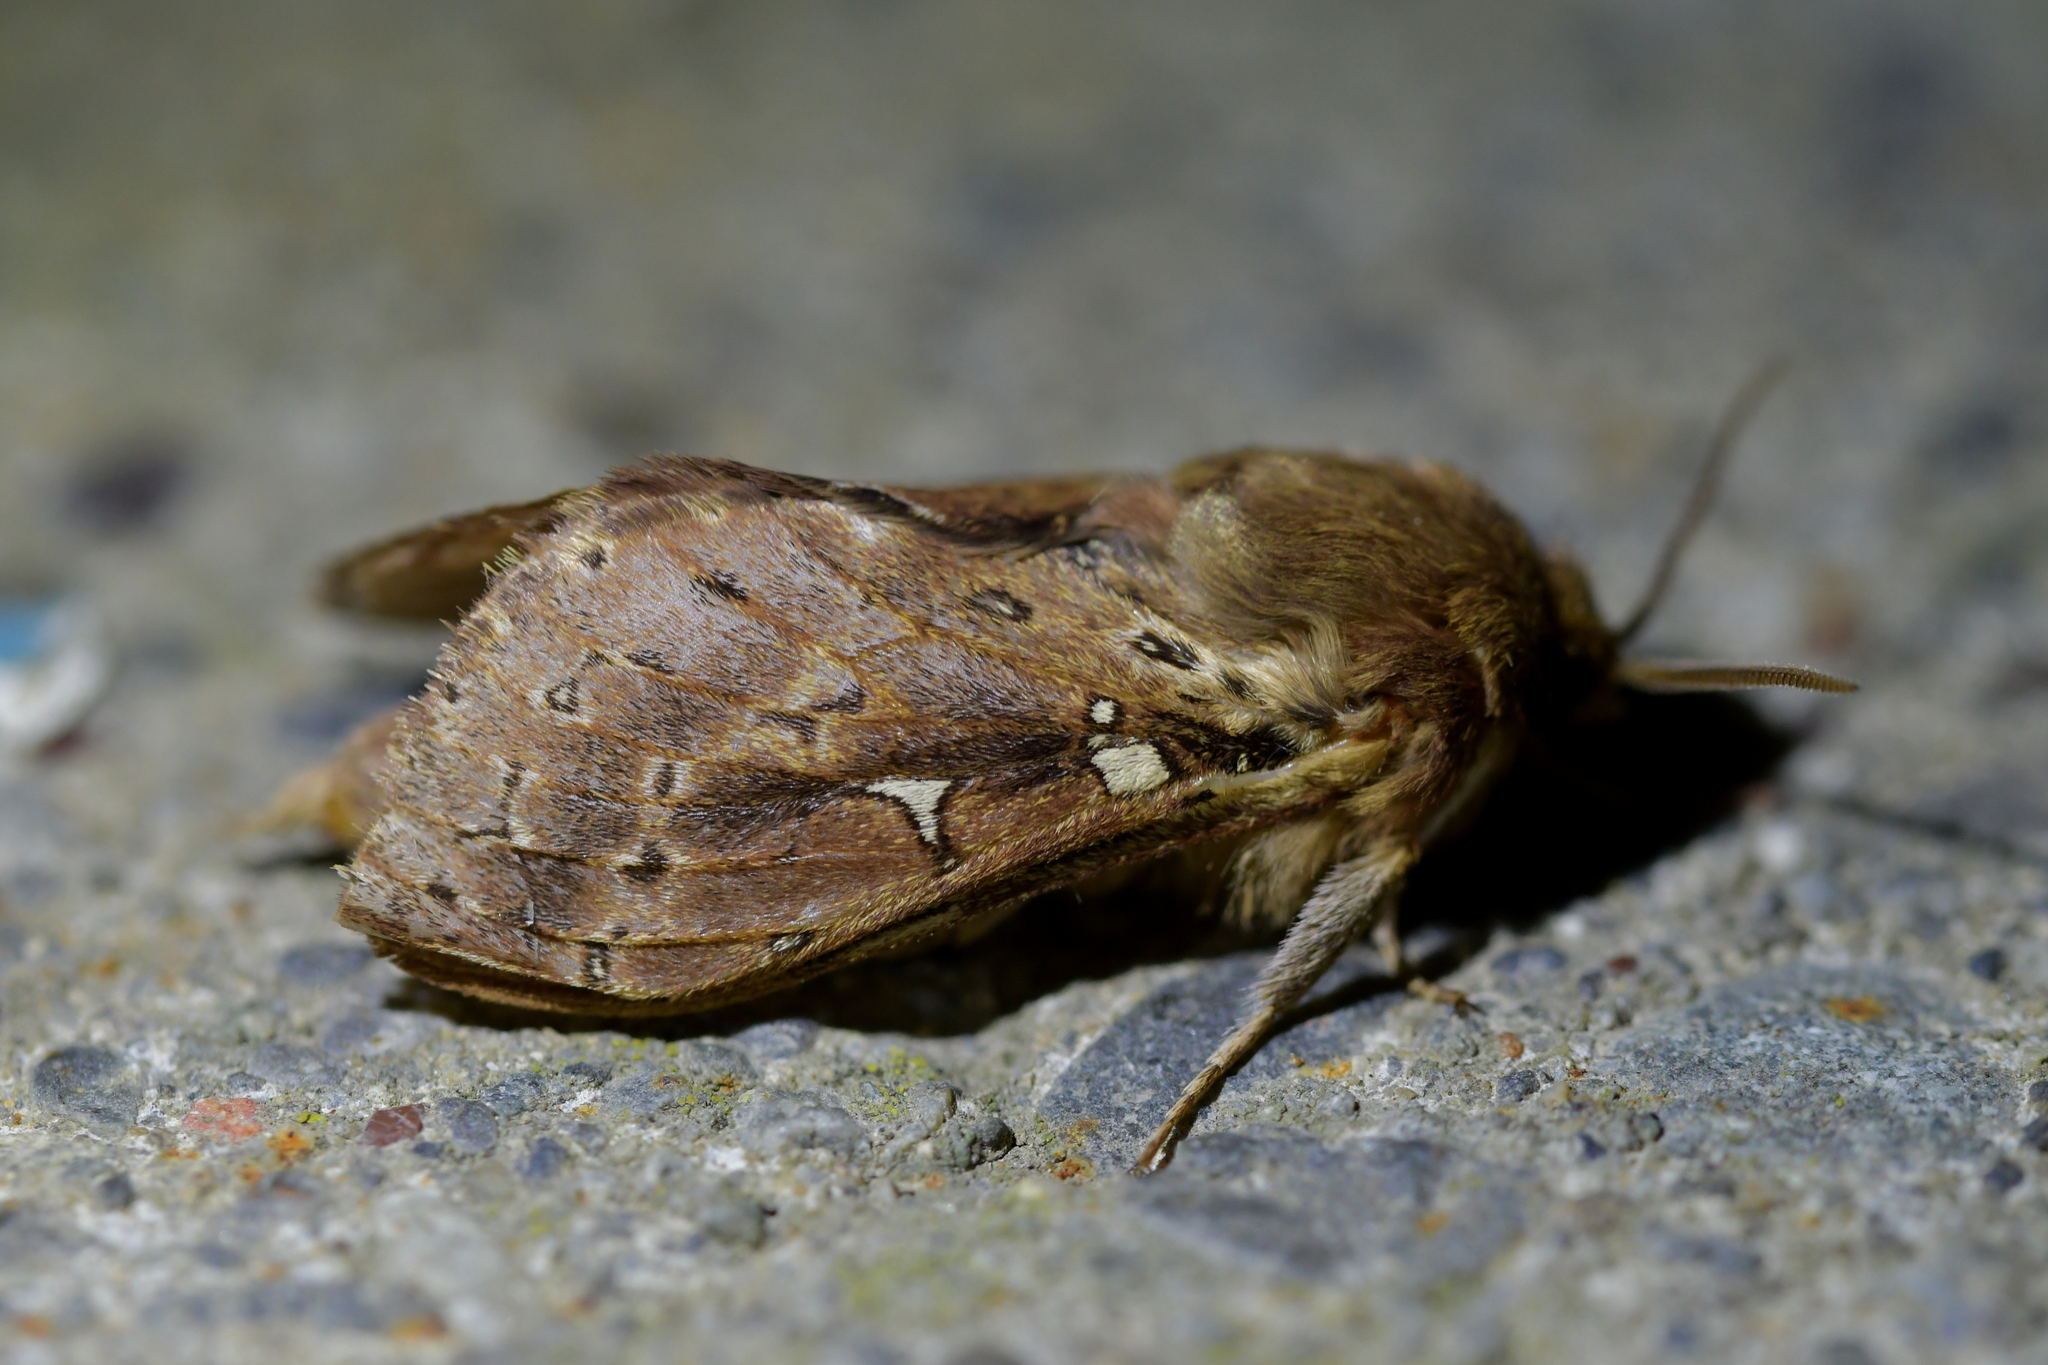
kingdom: Animalia
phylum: Arthropoda
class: Insecta
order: Lepidoptera
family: Hepialidae
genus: Wiseana
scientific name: Wiseana cervinata
